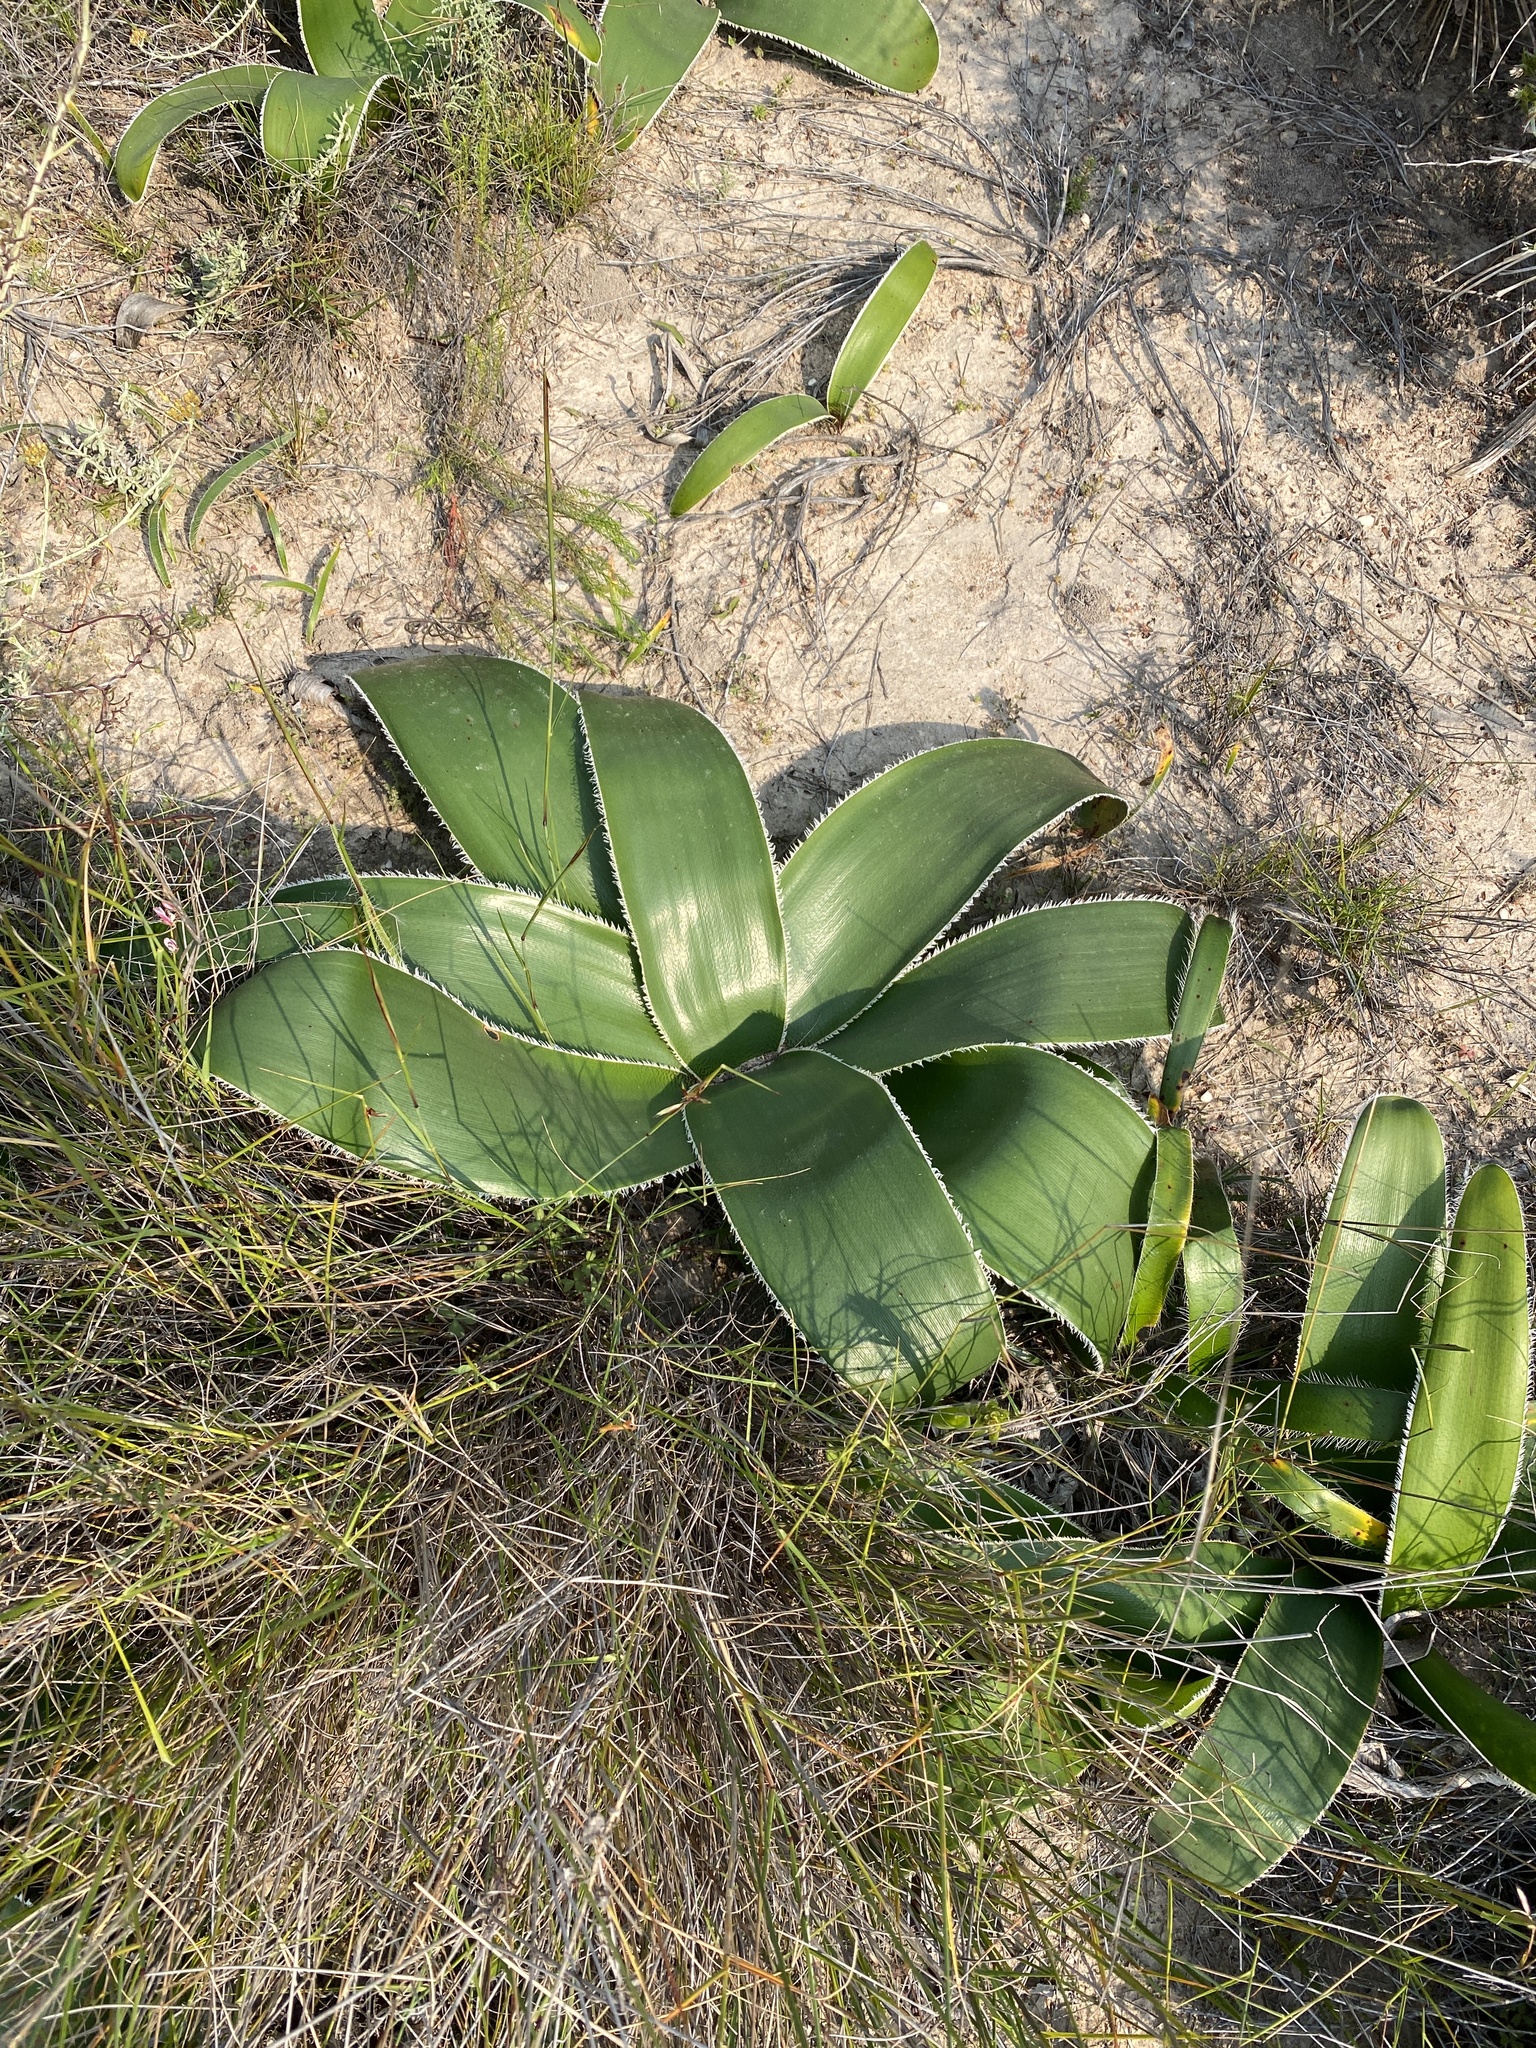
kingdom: Plantae
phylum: Tracheophyta
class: Liliopsida
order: Asparagales
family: Amaryllidaceae
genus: Crossyne
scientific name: Crossyne flava
